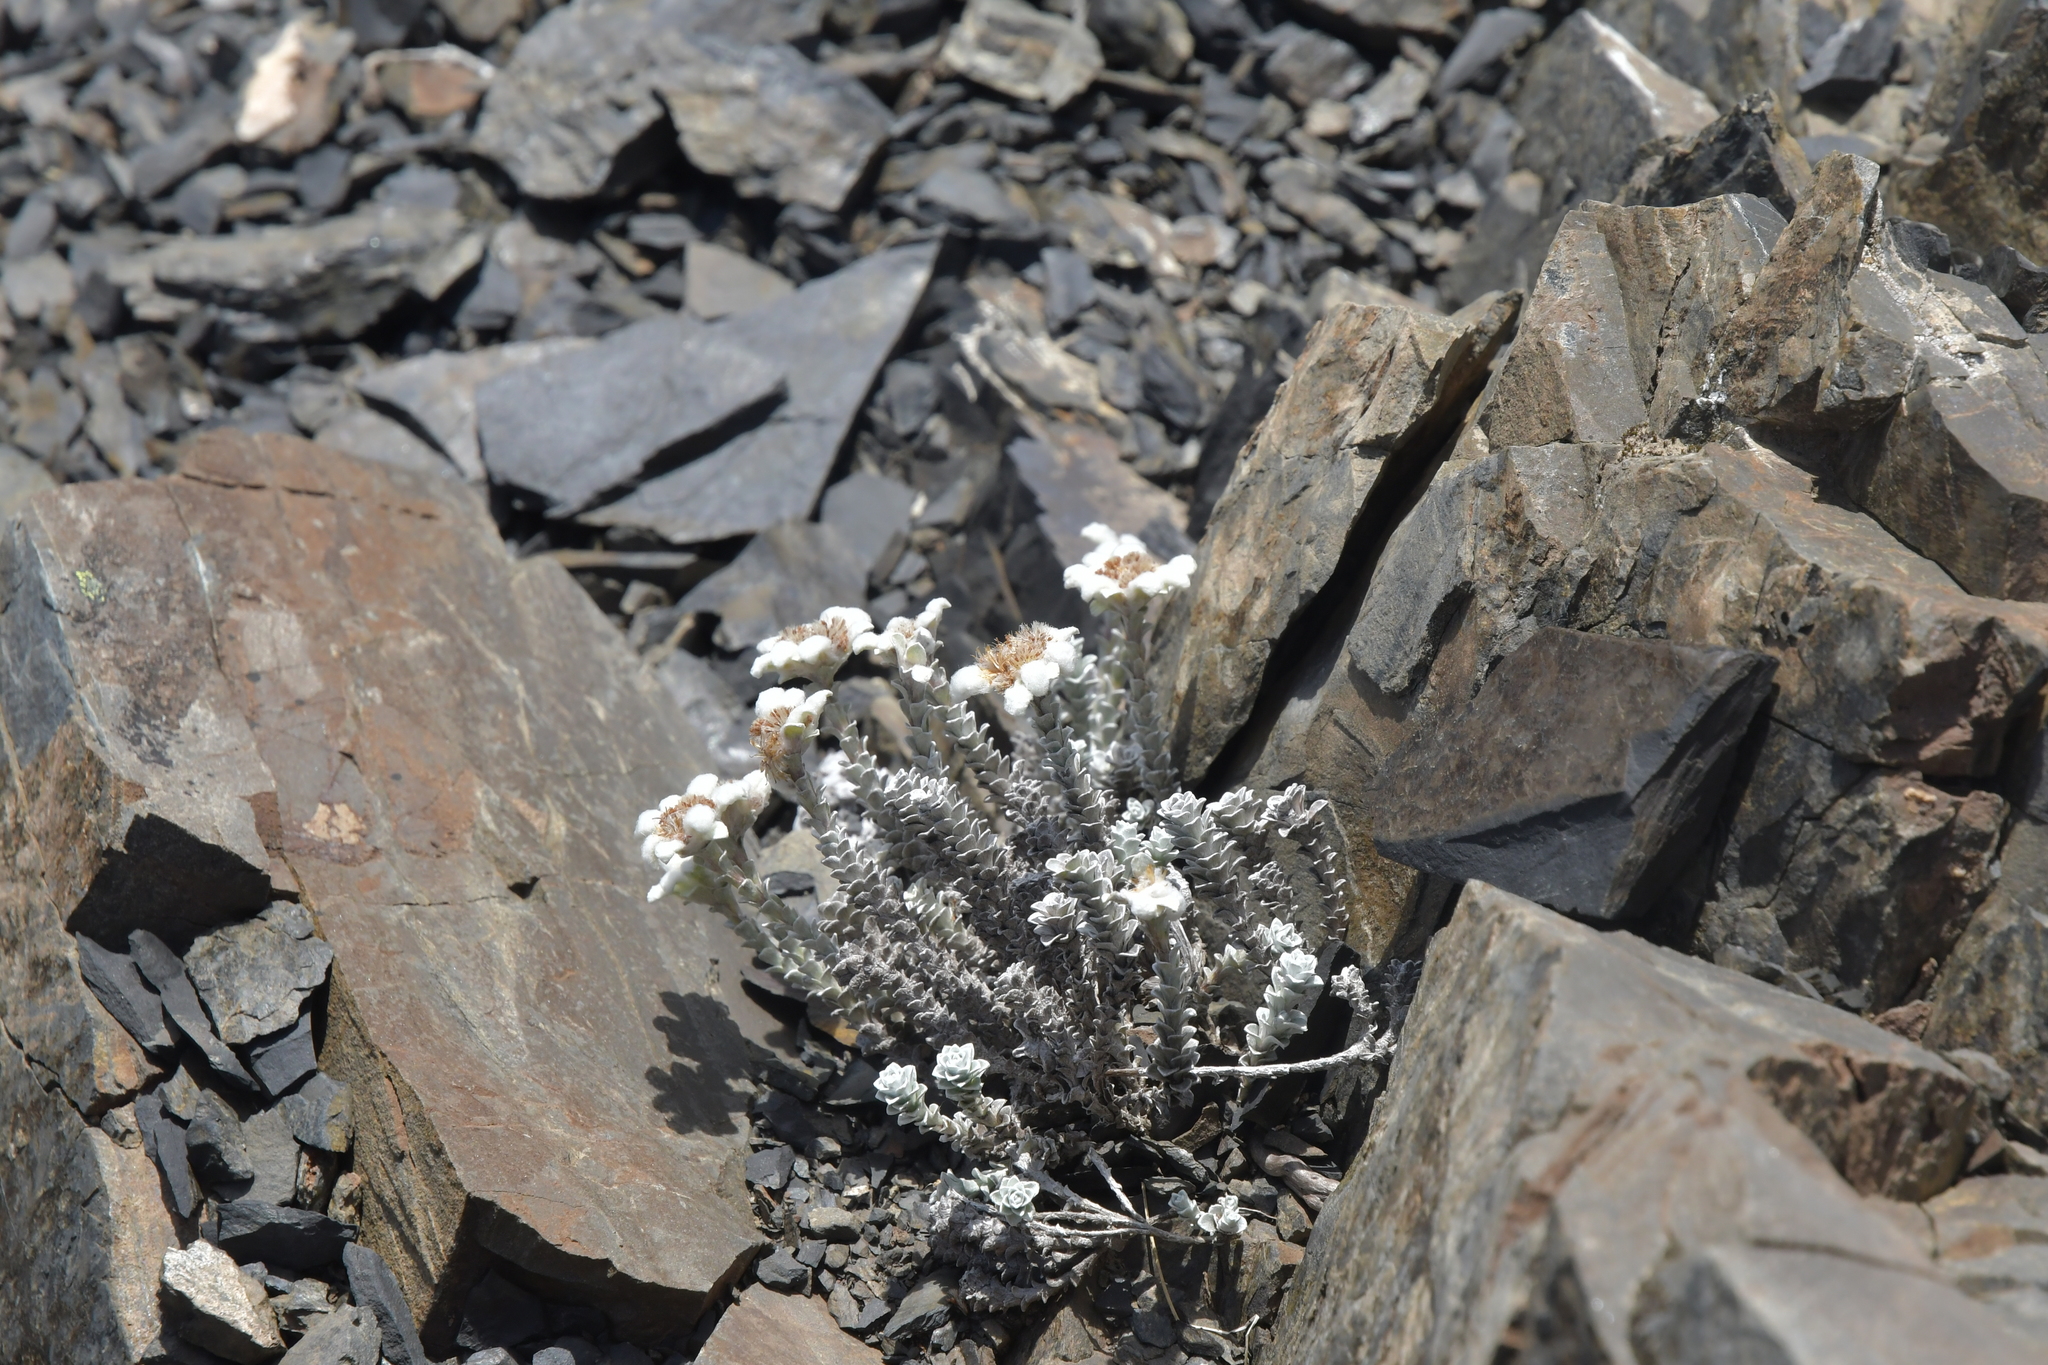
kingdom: Plantae
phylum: Tracheophyta
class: Magnoliopsida
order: Asterales
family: Asteraceae
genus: Leucogenes
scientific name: Leucogenes grandiceps
